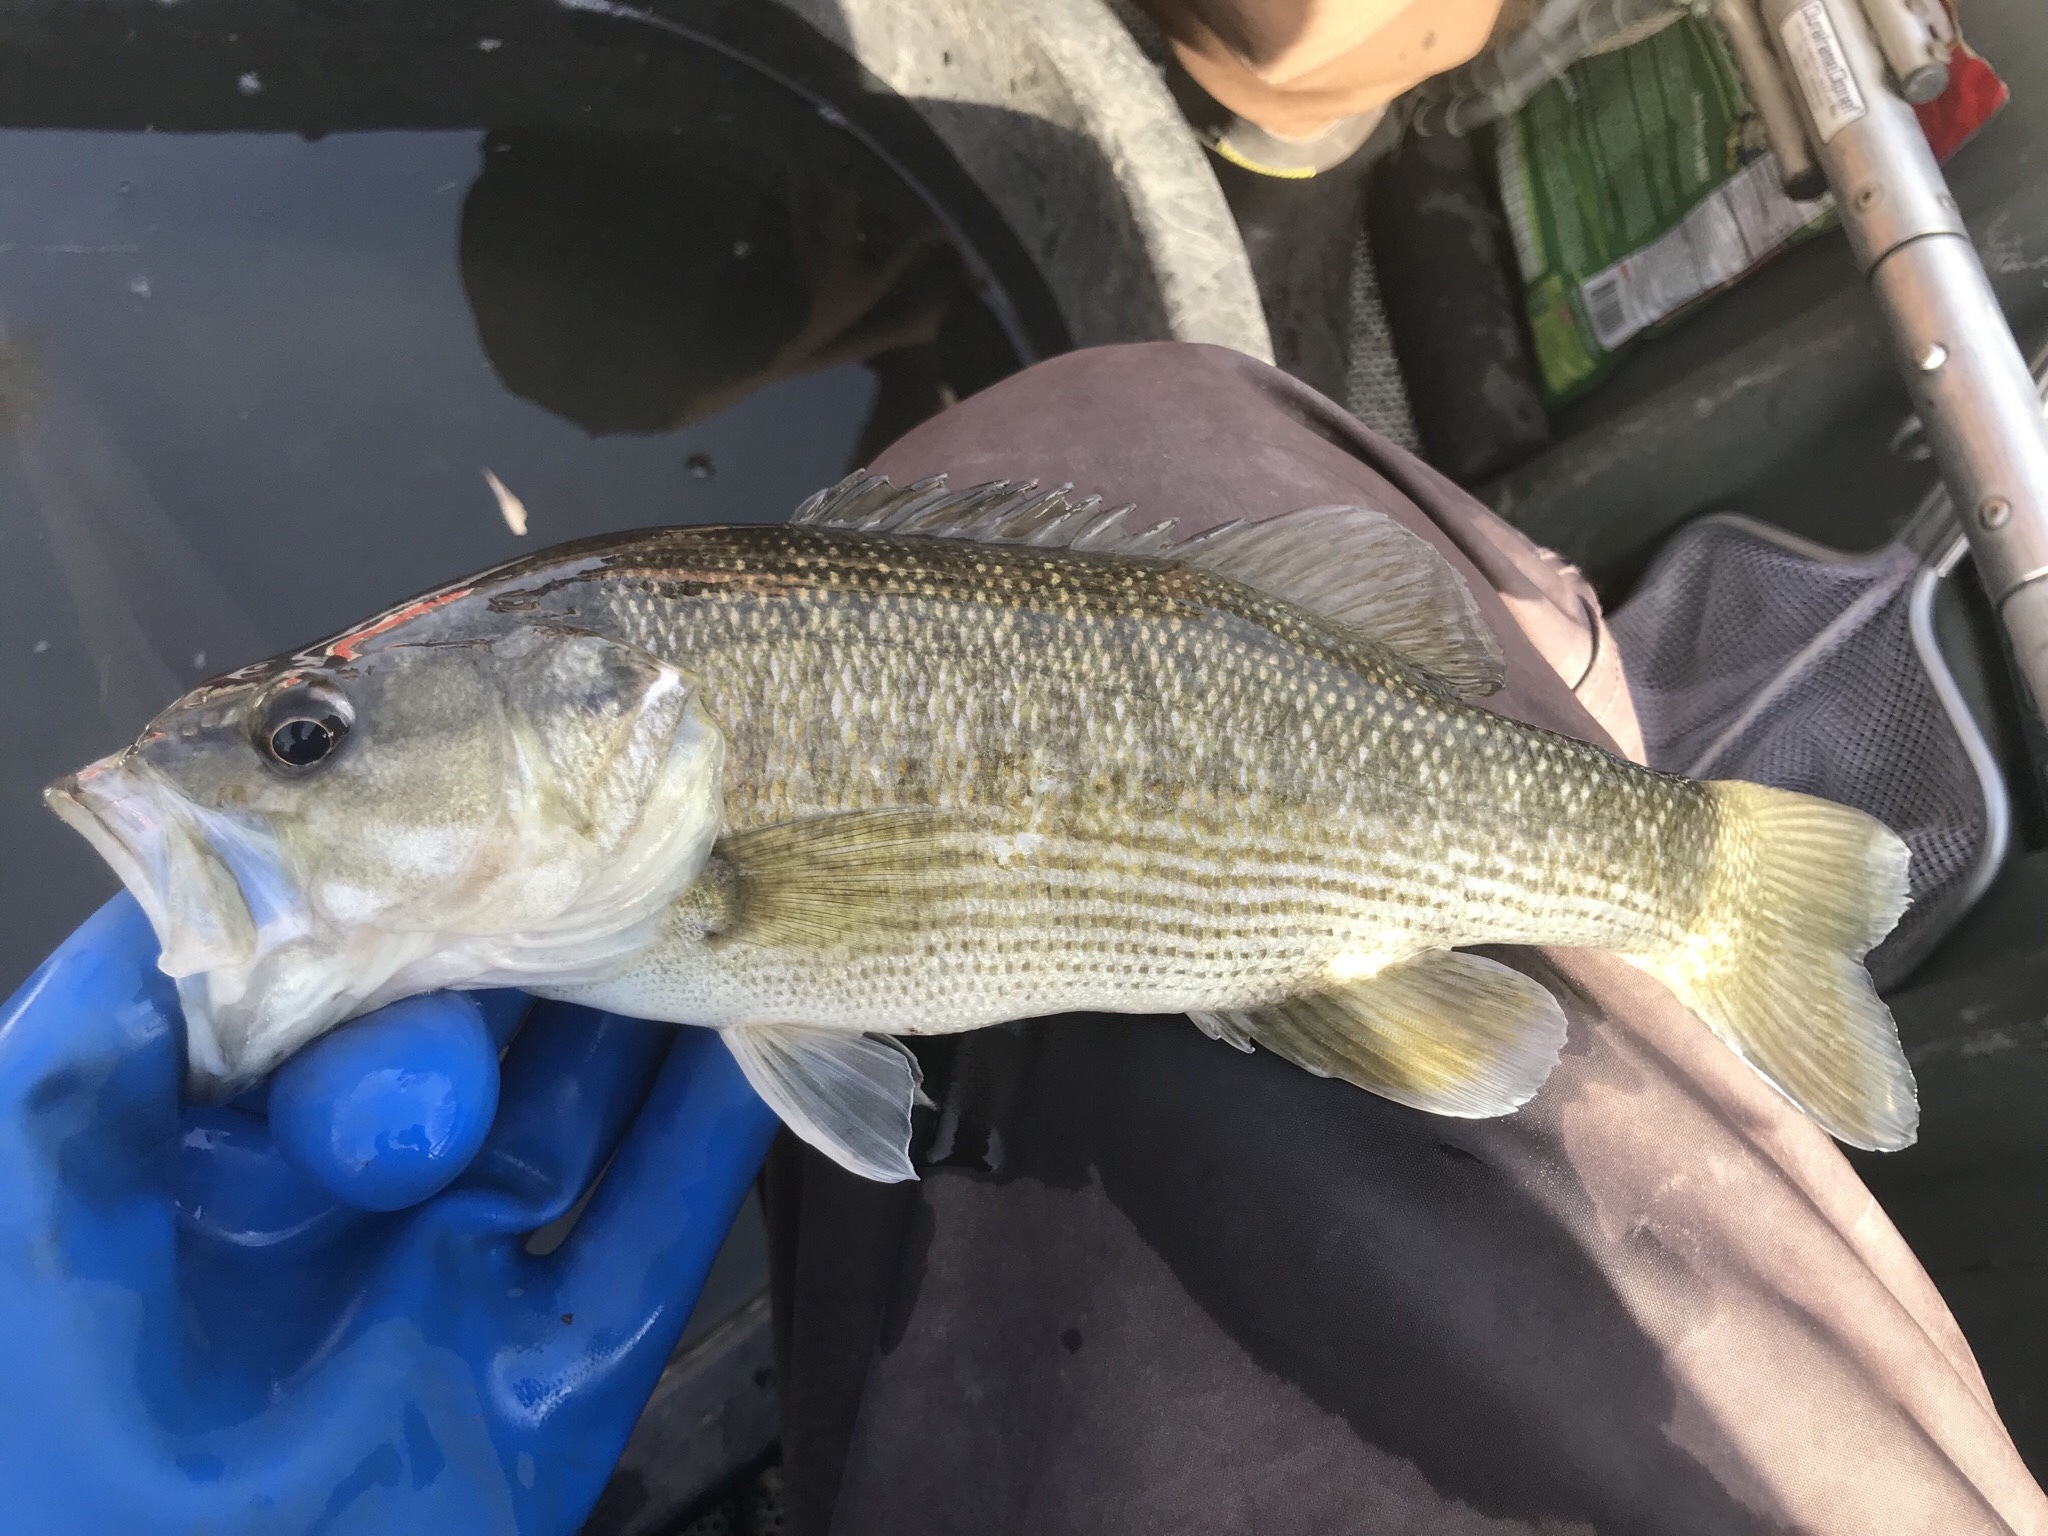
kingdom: Animalia
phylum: Chordata
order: Perciformes
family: Centrarchidae
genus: Micropterus
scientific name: Micropterus treculii
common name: Guadalupe bass
